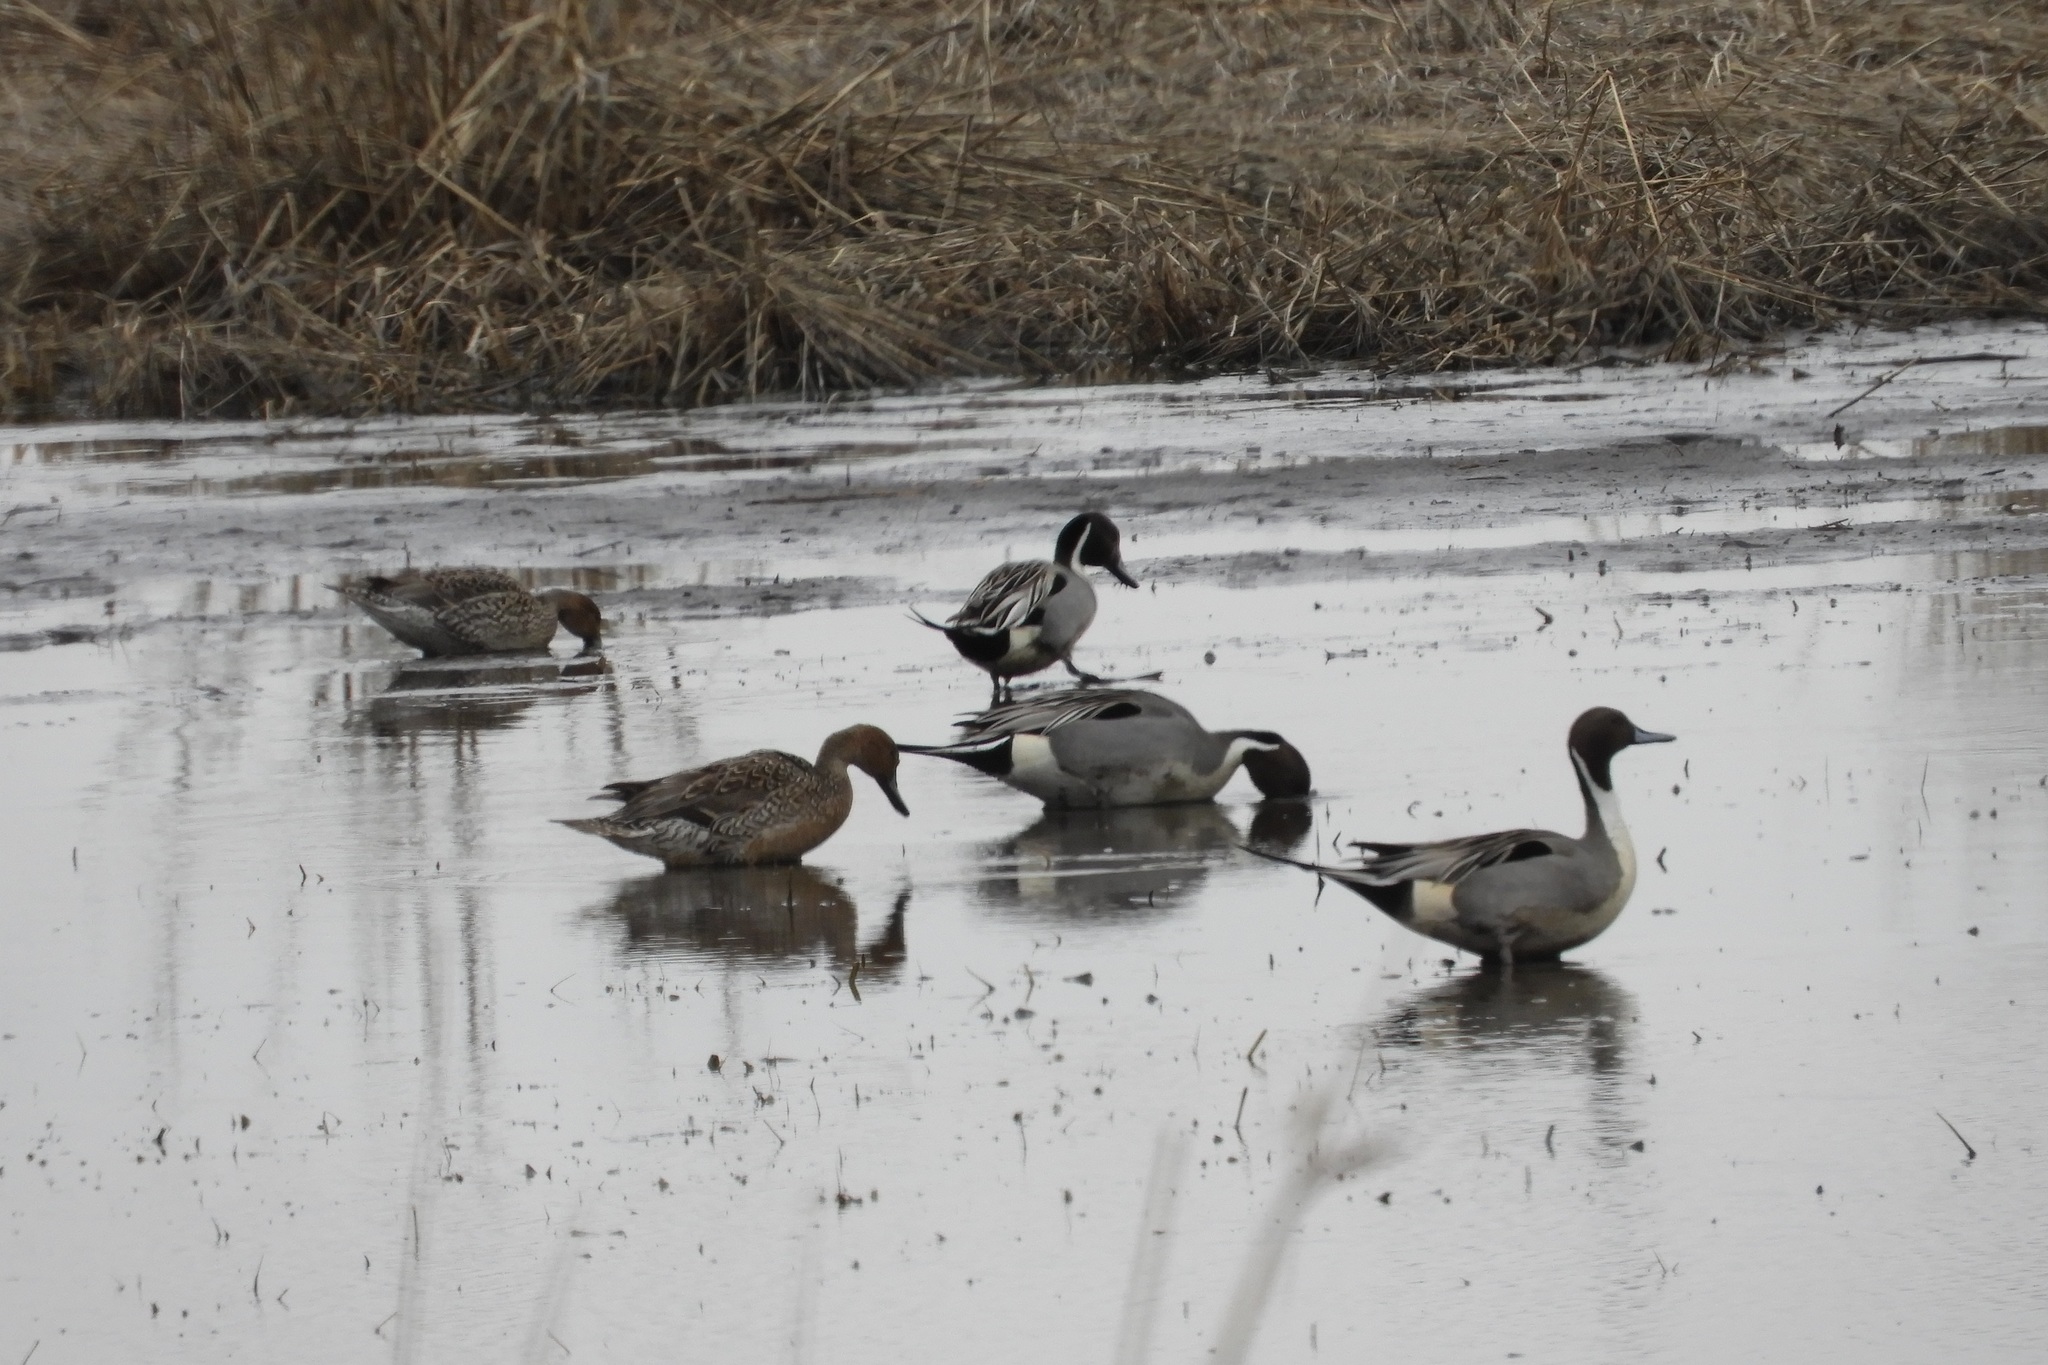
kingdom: Animalia
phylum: Chordata
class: Aves
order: Anseriformes
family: Anatidae
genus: Anas
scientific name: Anas acuta
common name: Northern pintail
